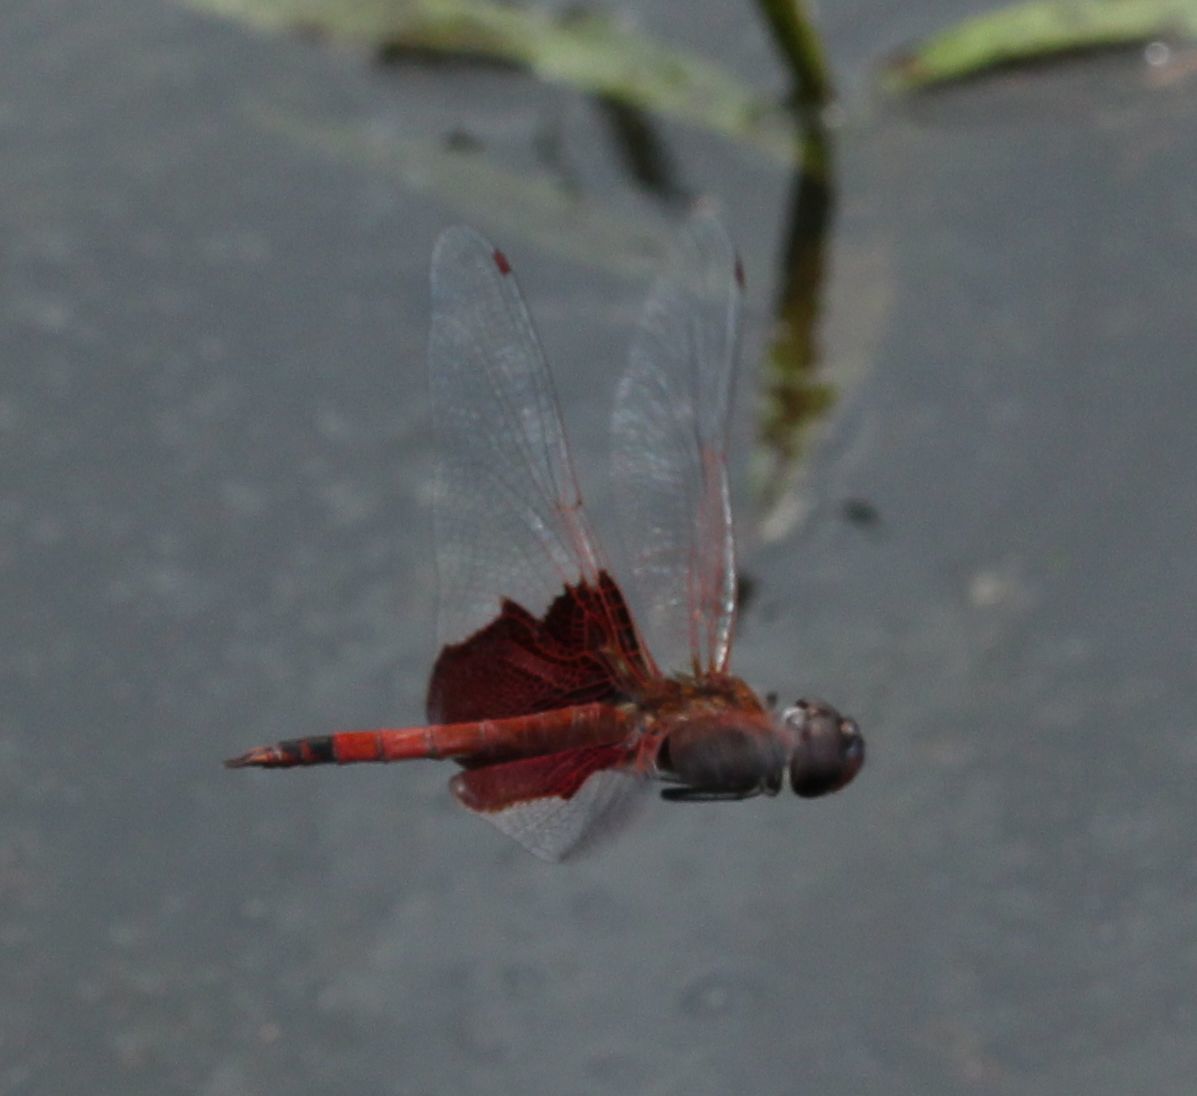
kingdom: Animalia
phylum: Arthropoda
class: Insecta
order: Odonata
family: Libellulidae
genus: Tramea
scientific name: Tramea carolina
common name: Carolina saddlebags
